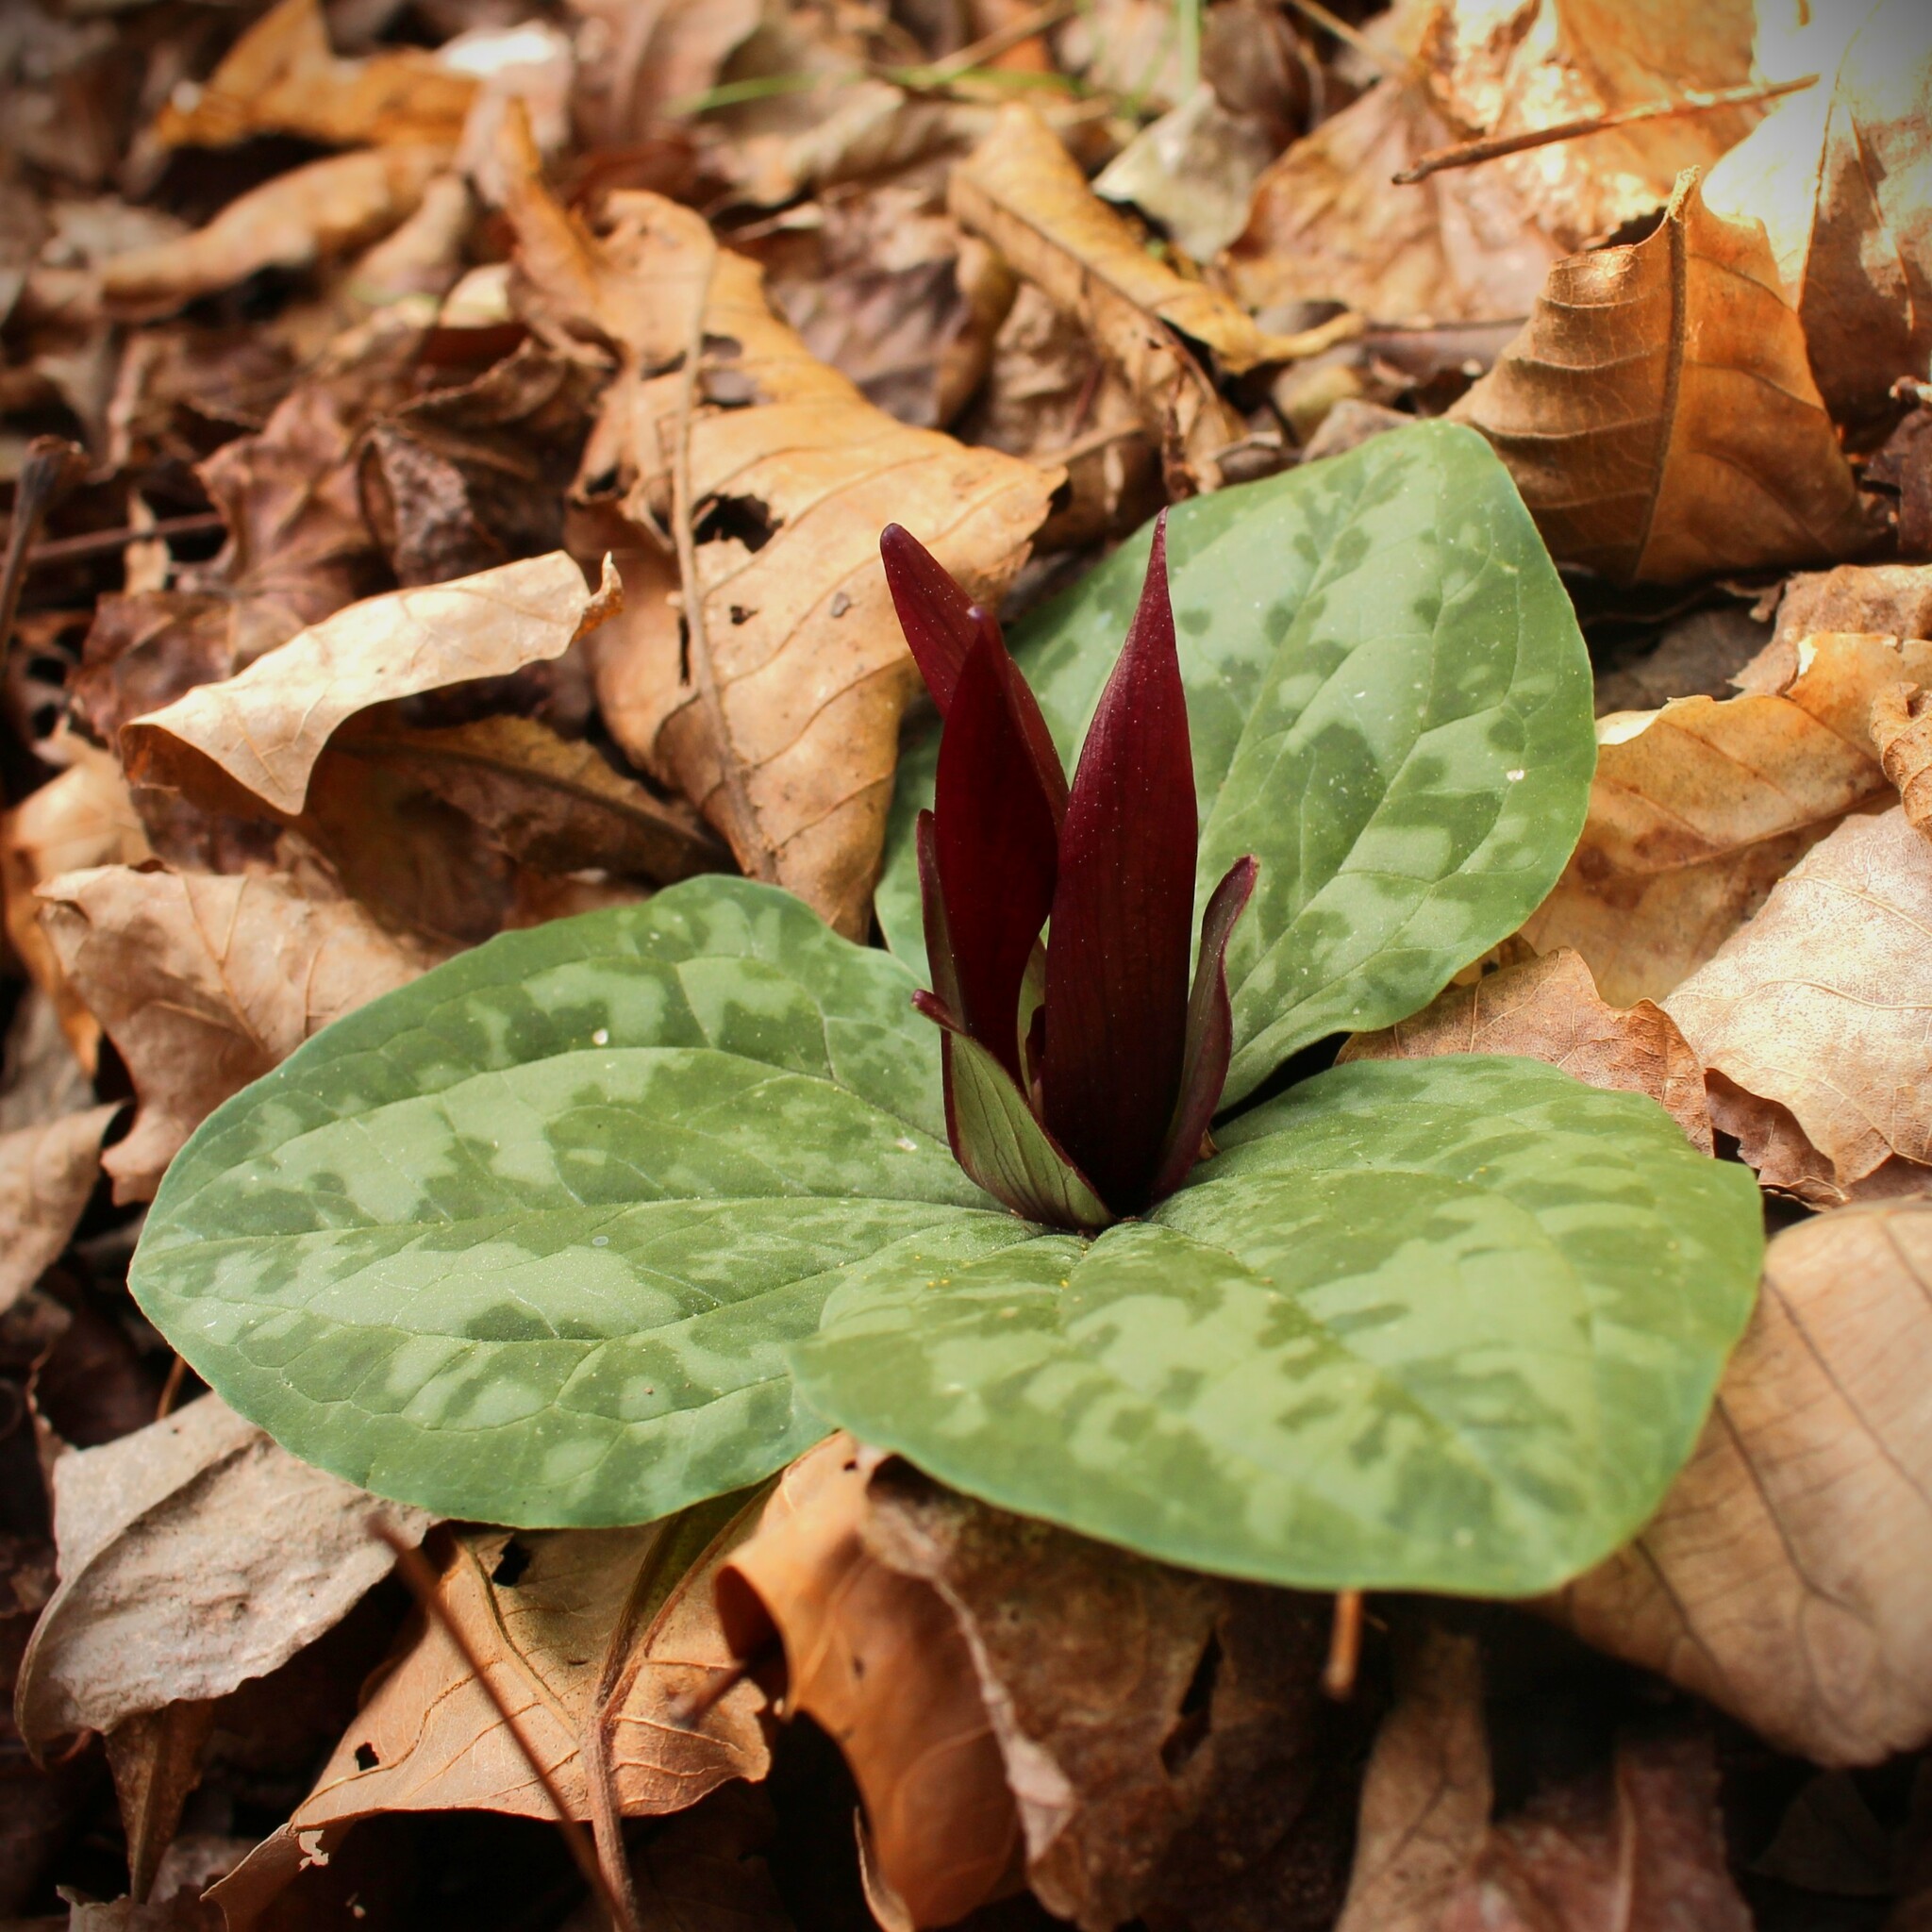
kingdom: Plantae
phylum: Tracheophyta
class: Liliopsida
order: Liliales
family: Melanthiaceae
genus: Trillium
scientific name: Trillium decumbens
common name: Decumbent trillium
